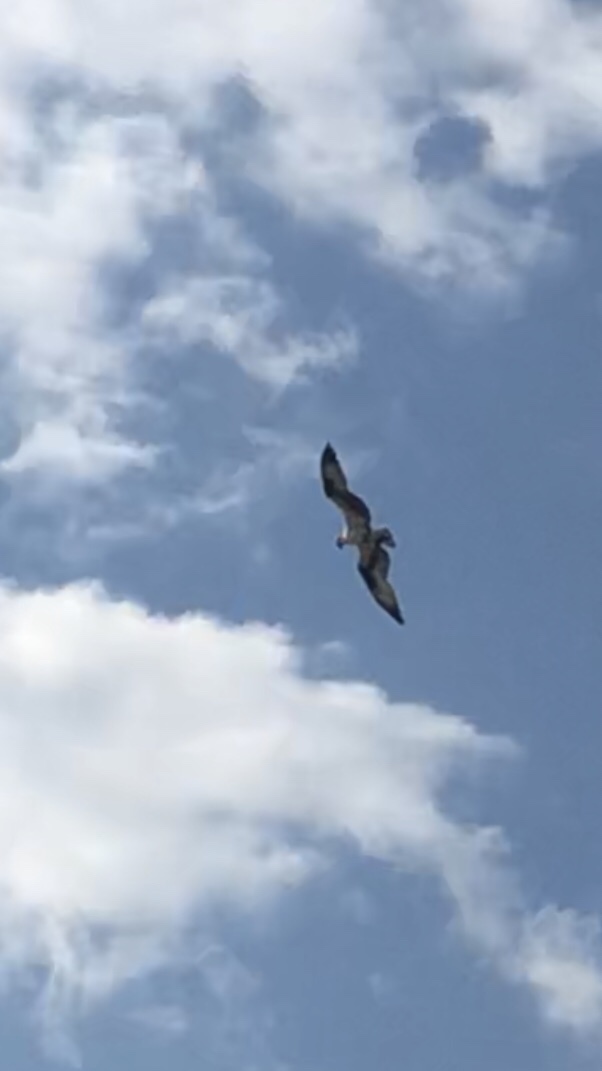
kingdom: Animalia
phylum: Chordata
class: Aves
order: Accipitriformes
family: Pandionidae
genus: Pandion
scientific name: Pandion haliaetus
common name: Osprey
